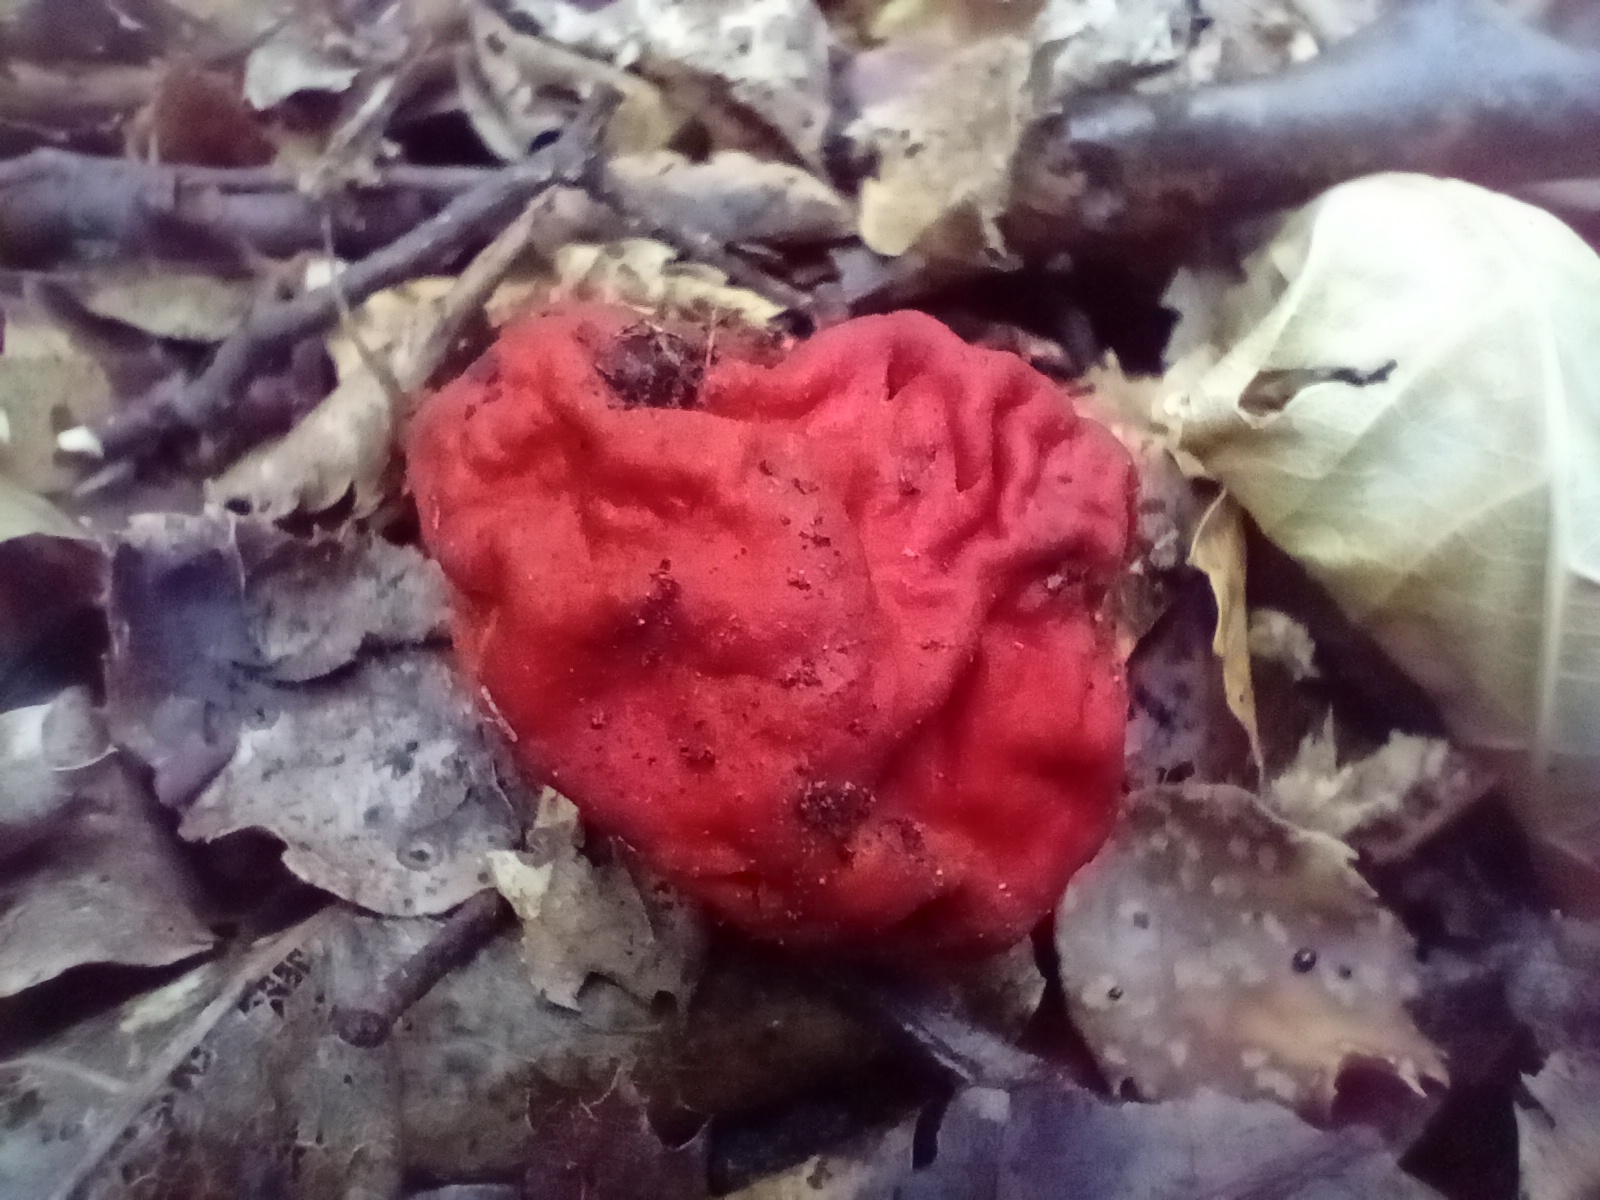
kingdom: Fungi
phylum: Ascomycota
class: Pezizomycetes
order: Pezizales
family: Pyronemataceae
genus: Paurocotylis
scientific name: Paurocotylis pila
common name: Scarlet berry truffle
